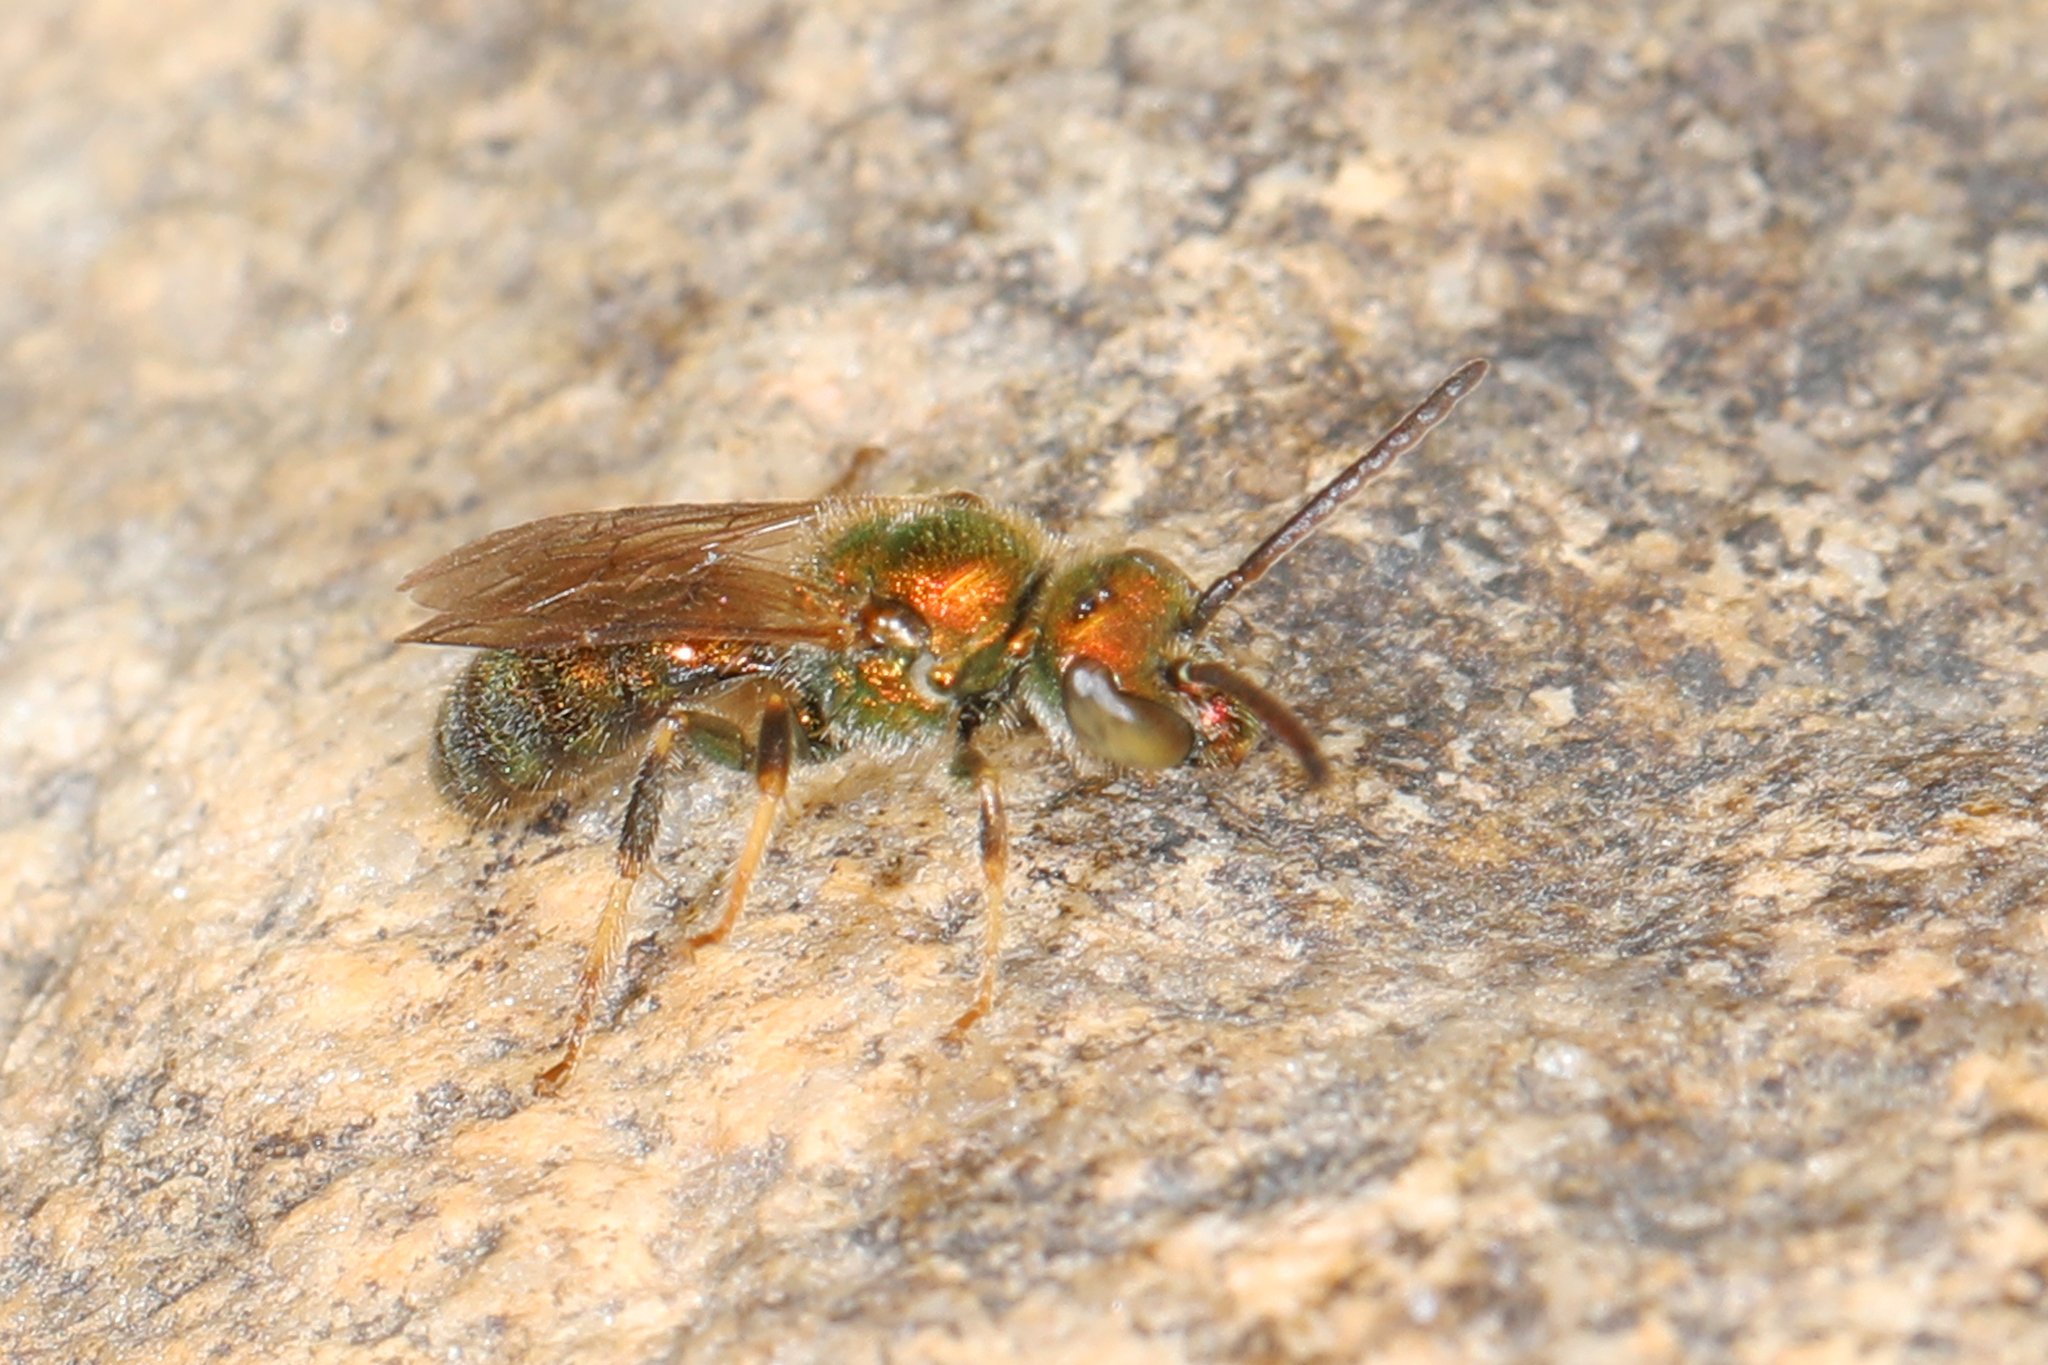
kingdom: Animalia
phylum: Arthropoda
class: Insecta
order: Hymenoptera
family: Halictidae
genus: Augochlora
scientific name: Augochlora pura
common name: Pure green sweat bee
